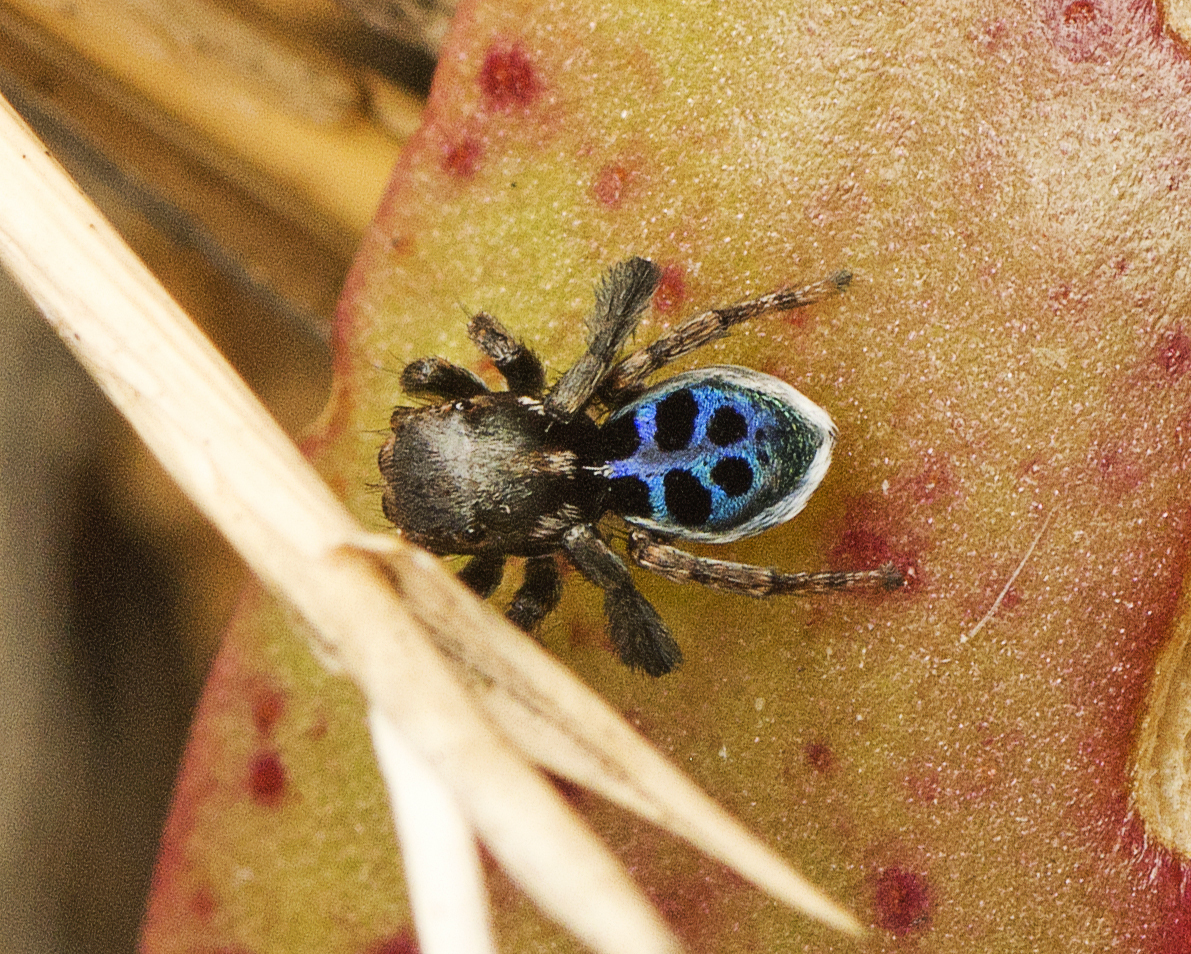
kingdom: Animalia
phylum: Arthropoda
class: Arachnida
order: Araneae
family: Salticidae
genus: Maratus
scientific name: Maratus nigromaculatus
